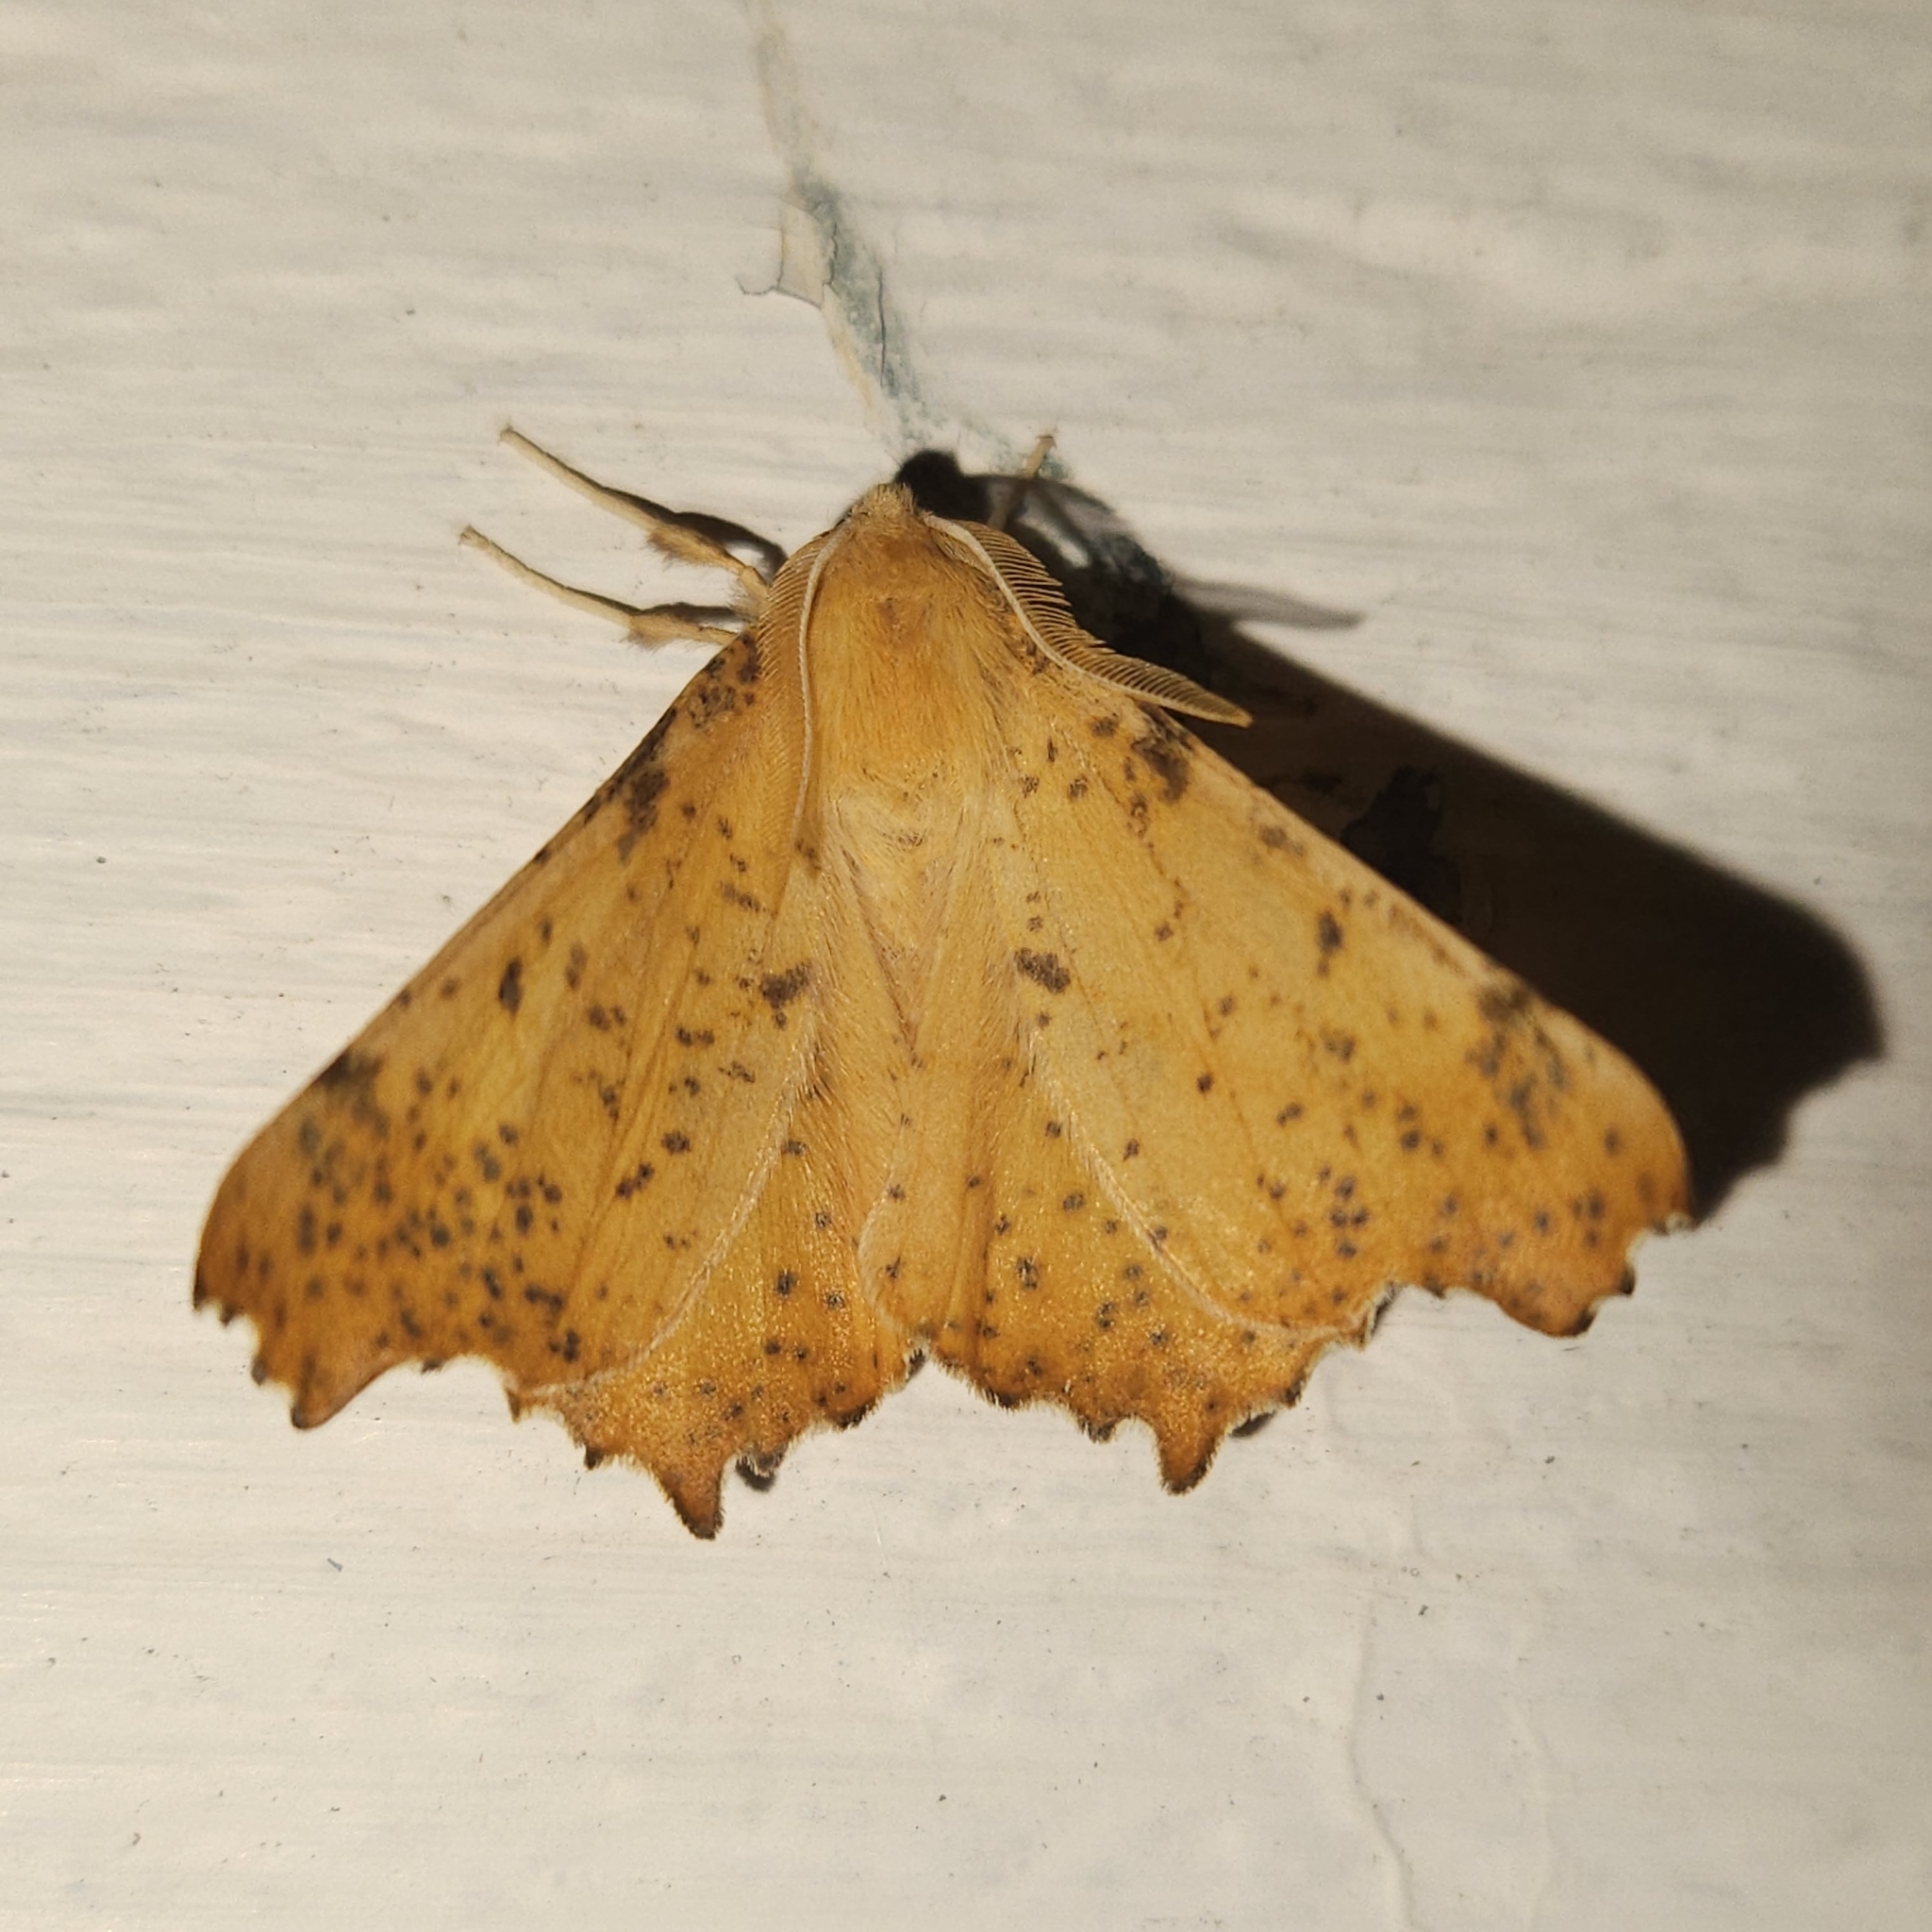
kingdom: Animalia
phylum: Arthropoda
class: Insecta
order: Lepidoptera
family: Geometridae
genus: Ennomos
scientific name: Ennomos magnaria
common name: Maple spanworm
